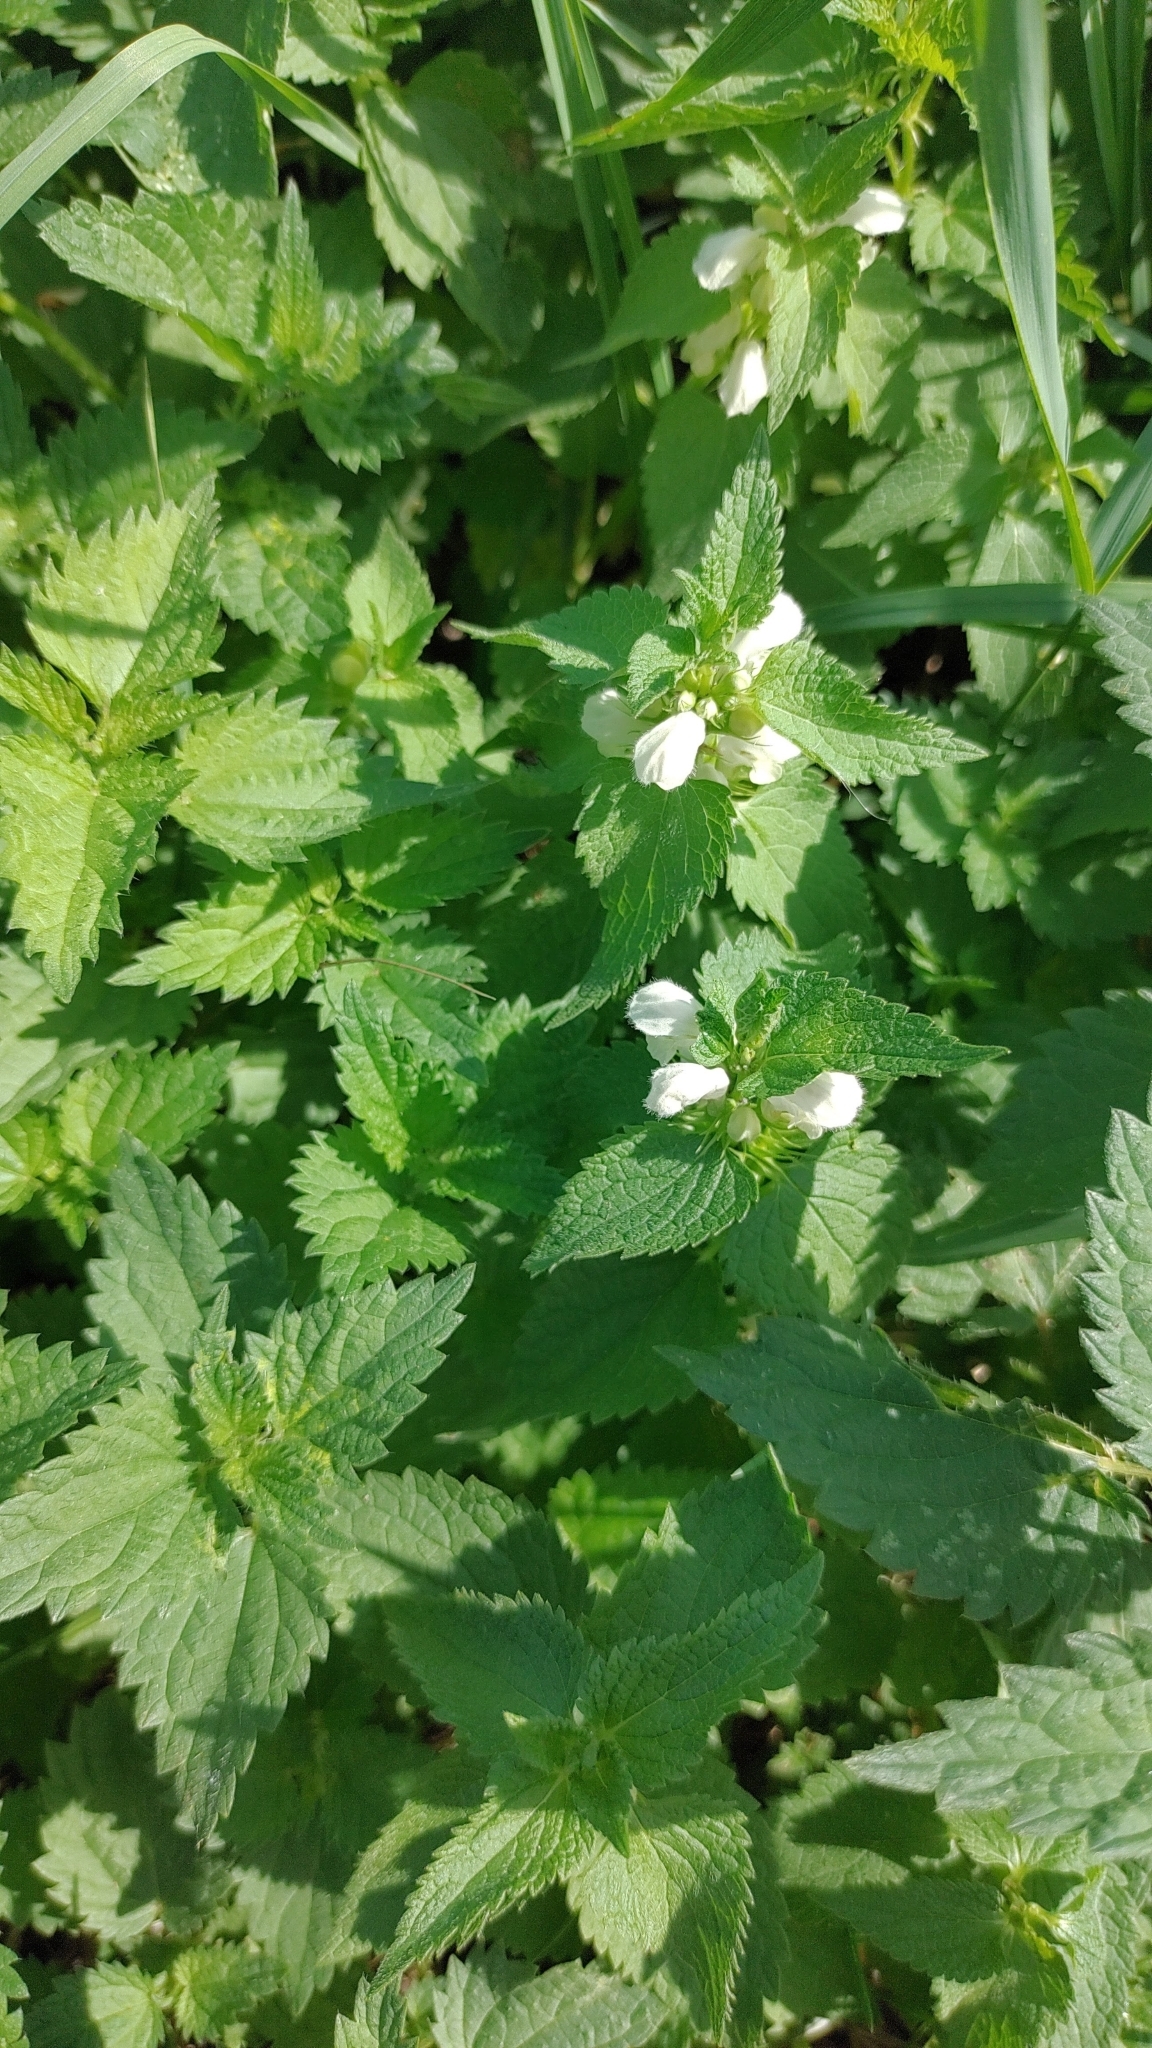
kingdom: Plantae
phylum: Tracheophyta
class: Magnoliopsida
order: Lamiales
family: Lamiaceae
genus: Lamium
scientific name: Lamium album
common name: White dead-nettle
